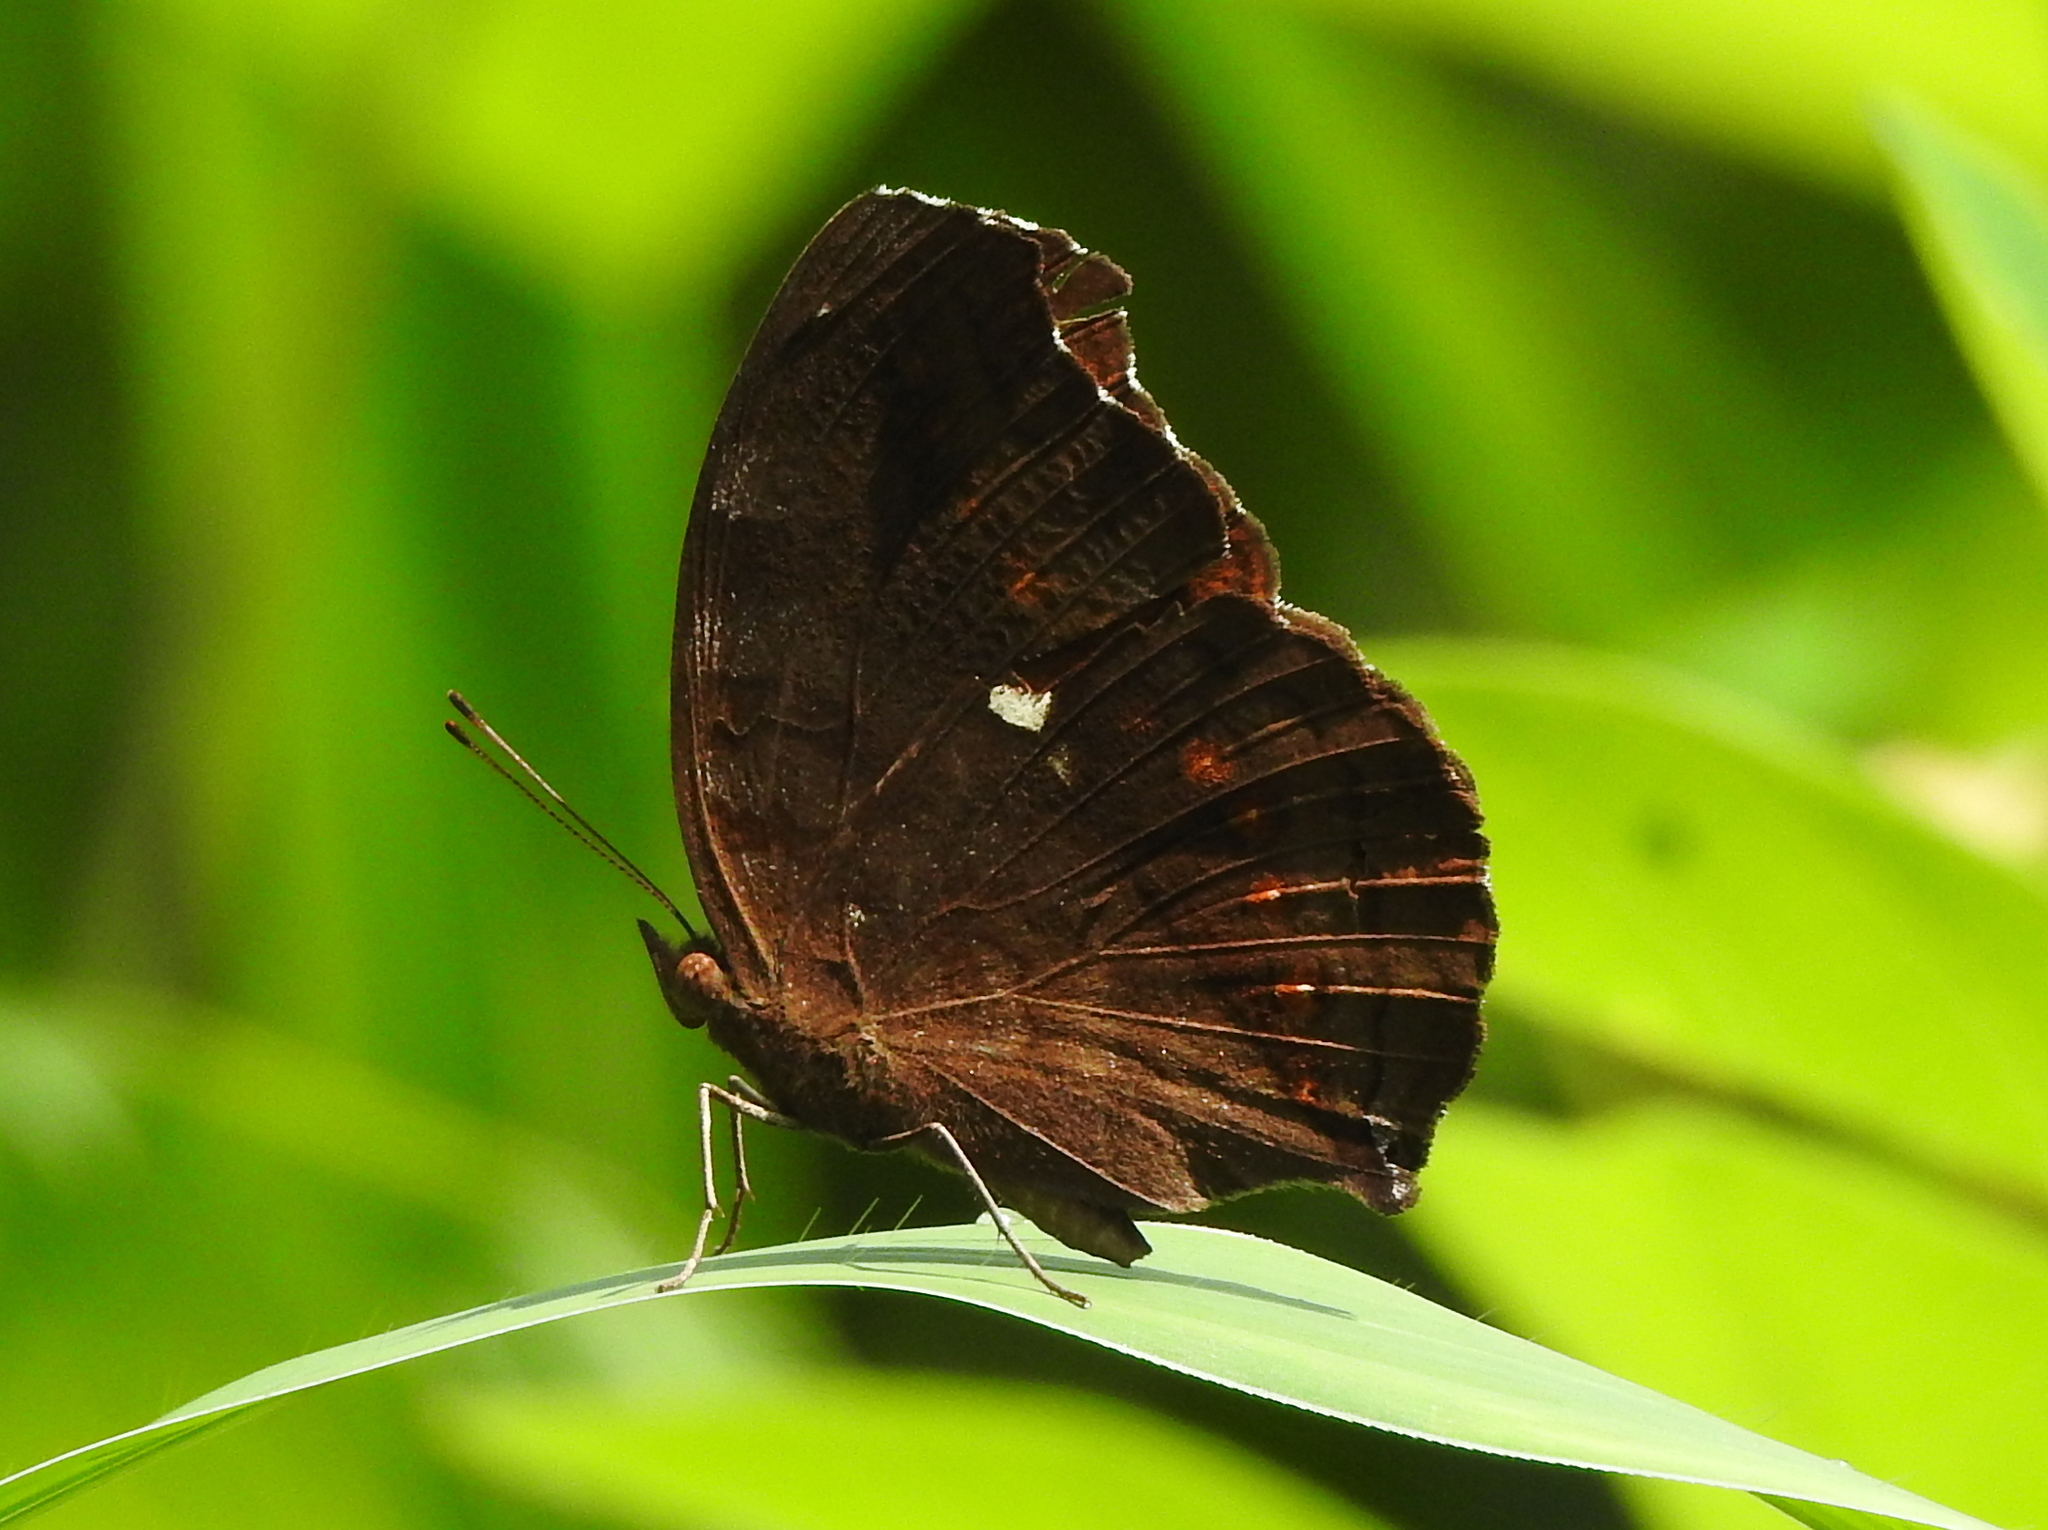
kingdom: Animalia
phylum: Arthropoda
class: Insecta
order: Lepidoptera
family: Nymphalidae
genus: Junonia
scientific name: Junonia hedonia
